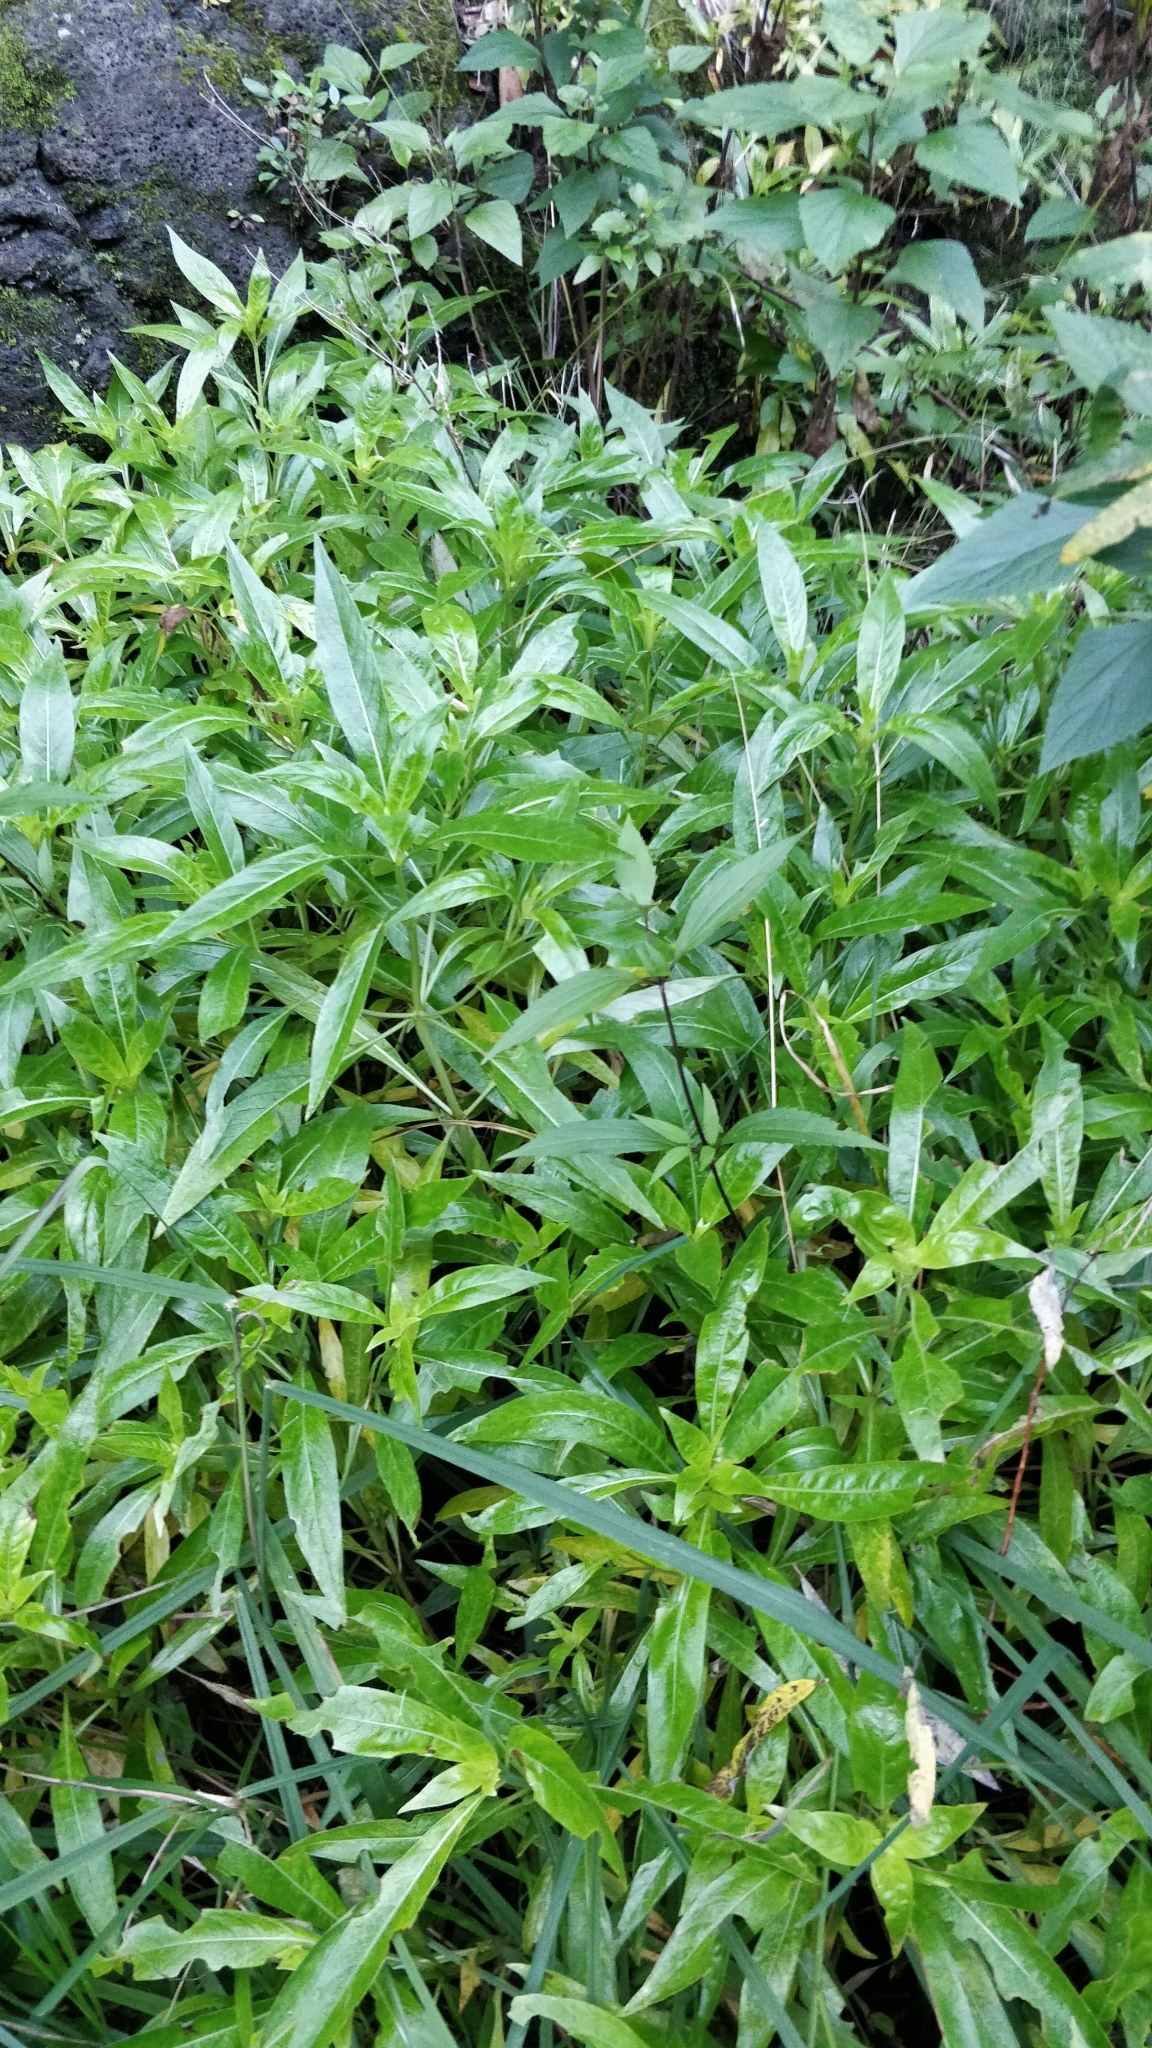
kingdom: Plantae
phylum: Tracheophyta
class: Magnoliopsida
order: Gentianales
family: Rubiaceae
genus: Phyllis
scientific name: Phyllis nobla
